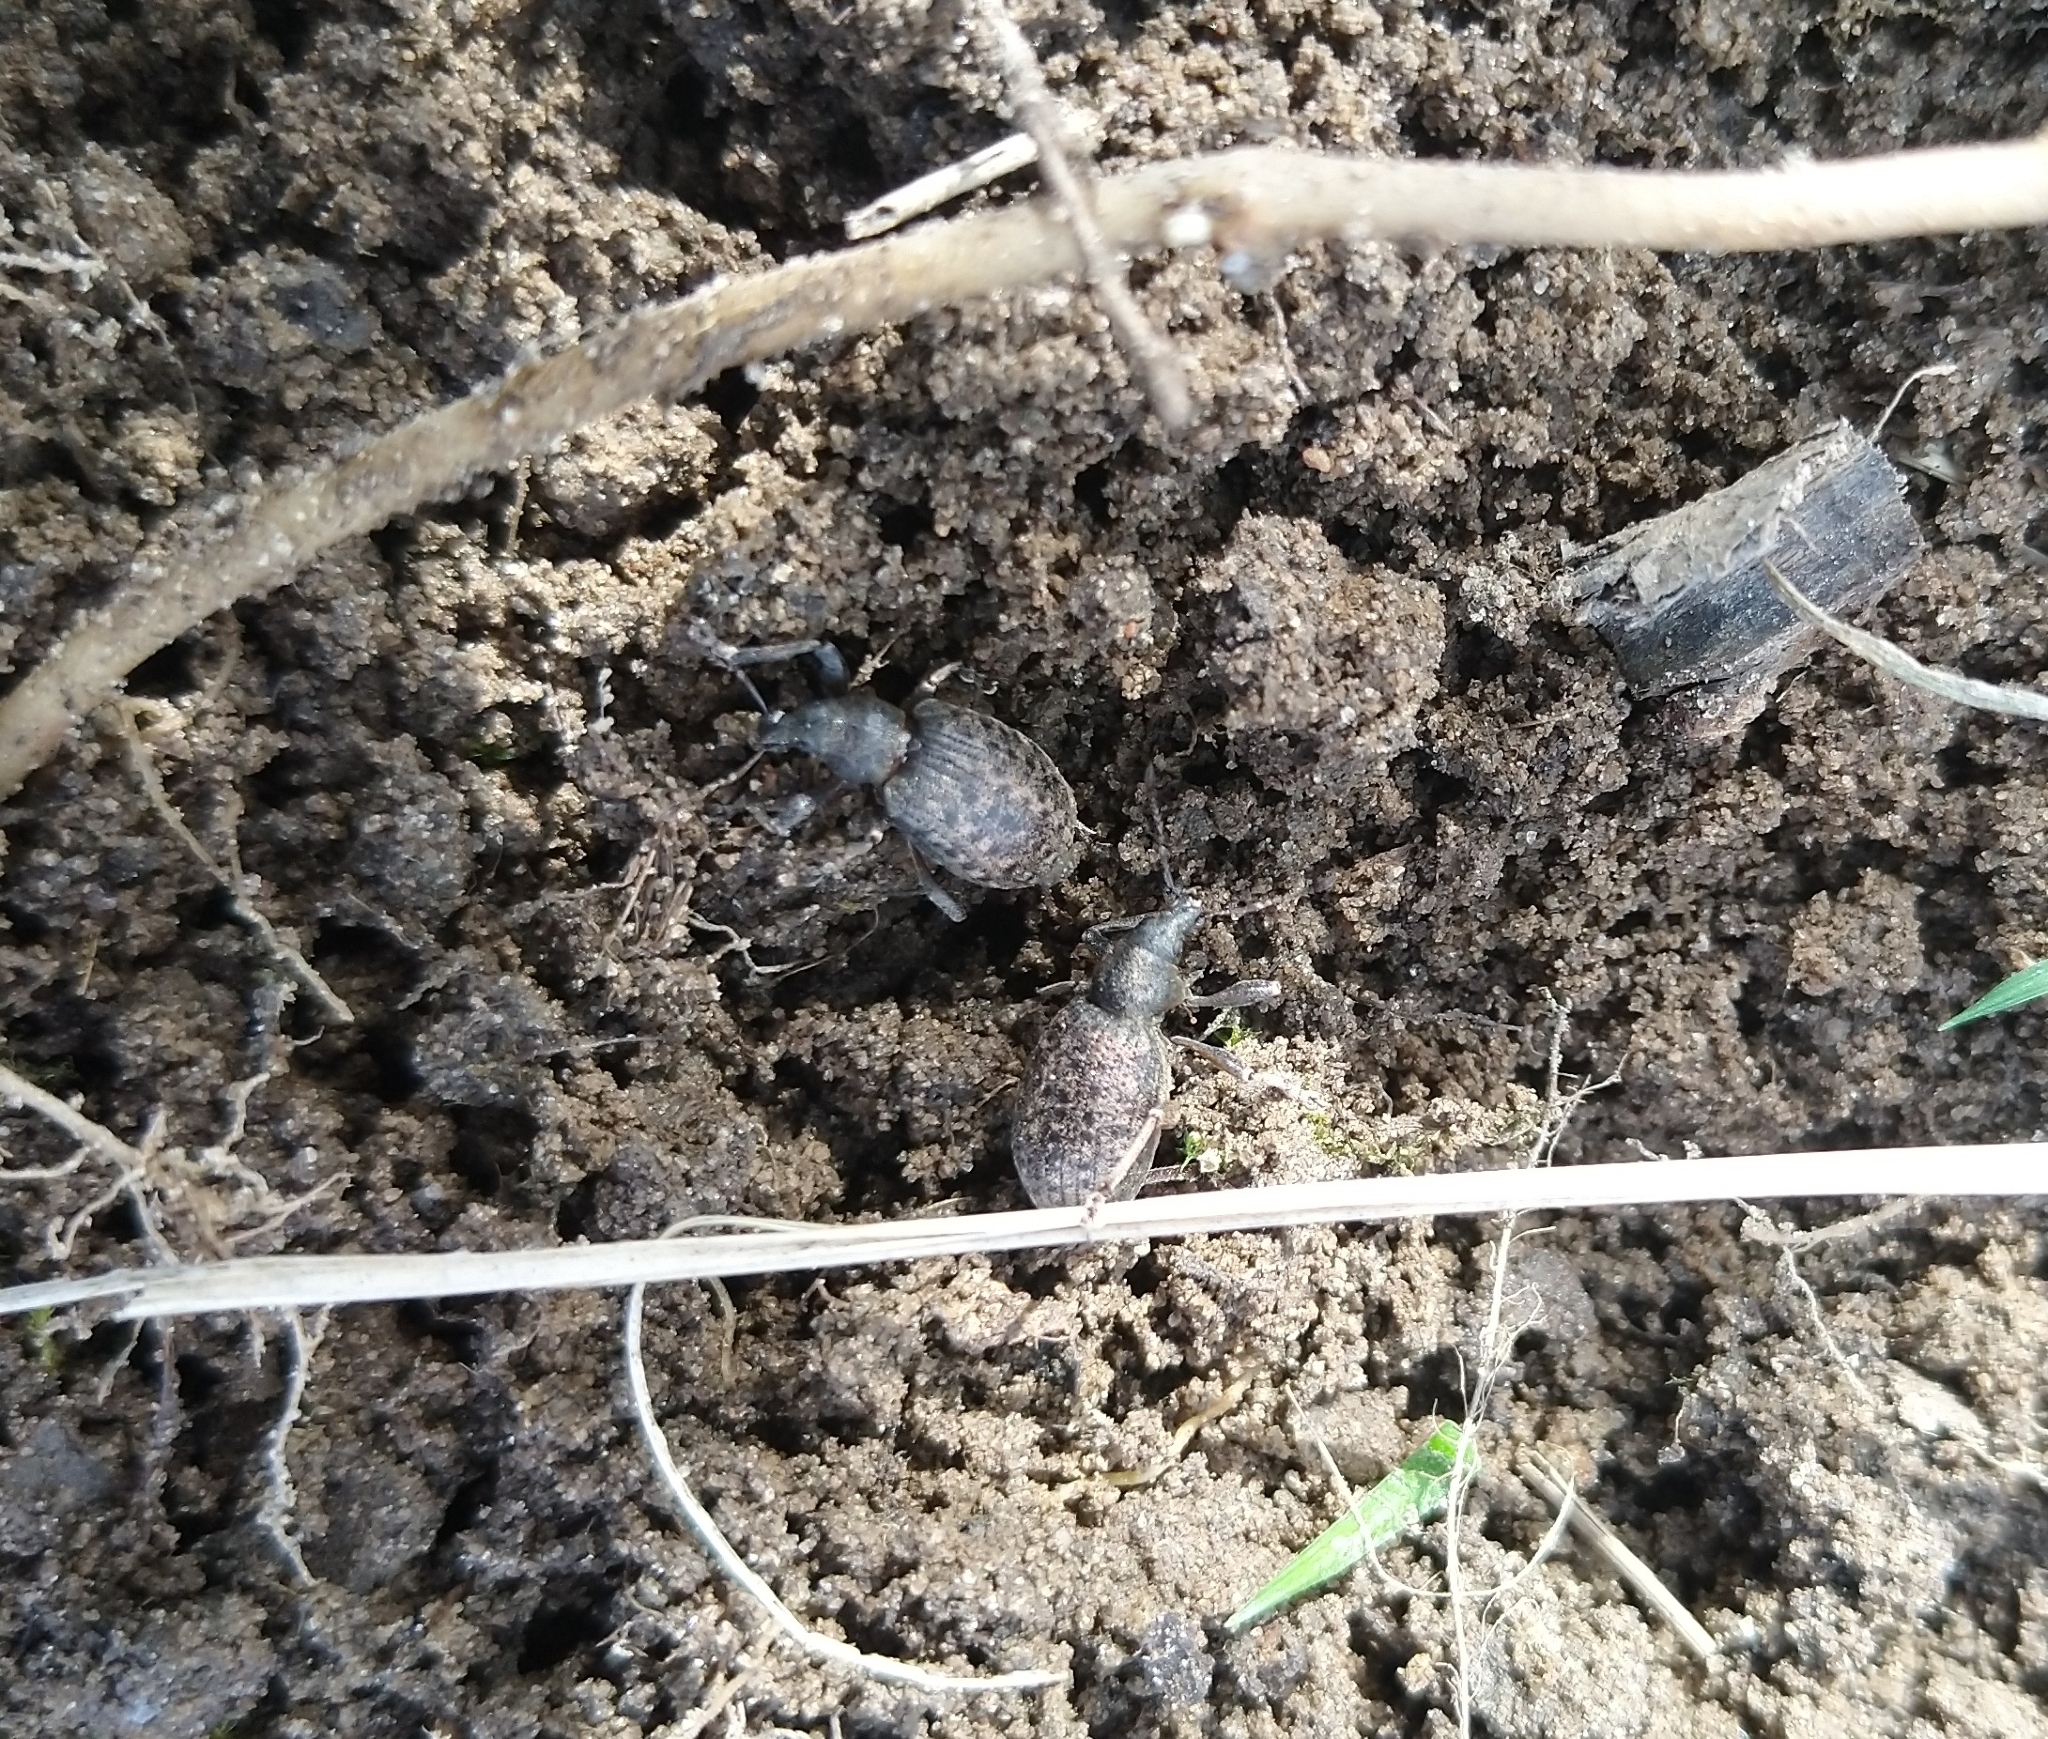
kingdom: Animalia
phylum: Arthropoda
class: Insecta
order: Coleoptera
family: Curculionidae
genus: Liophloeus
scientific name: Liophloeus tessulatus
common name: Weevil
